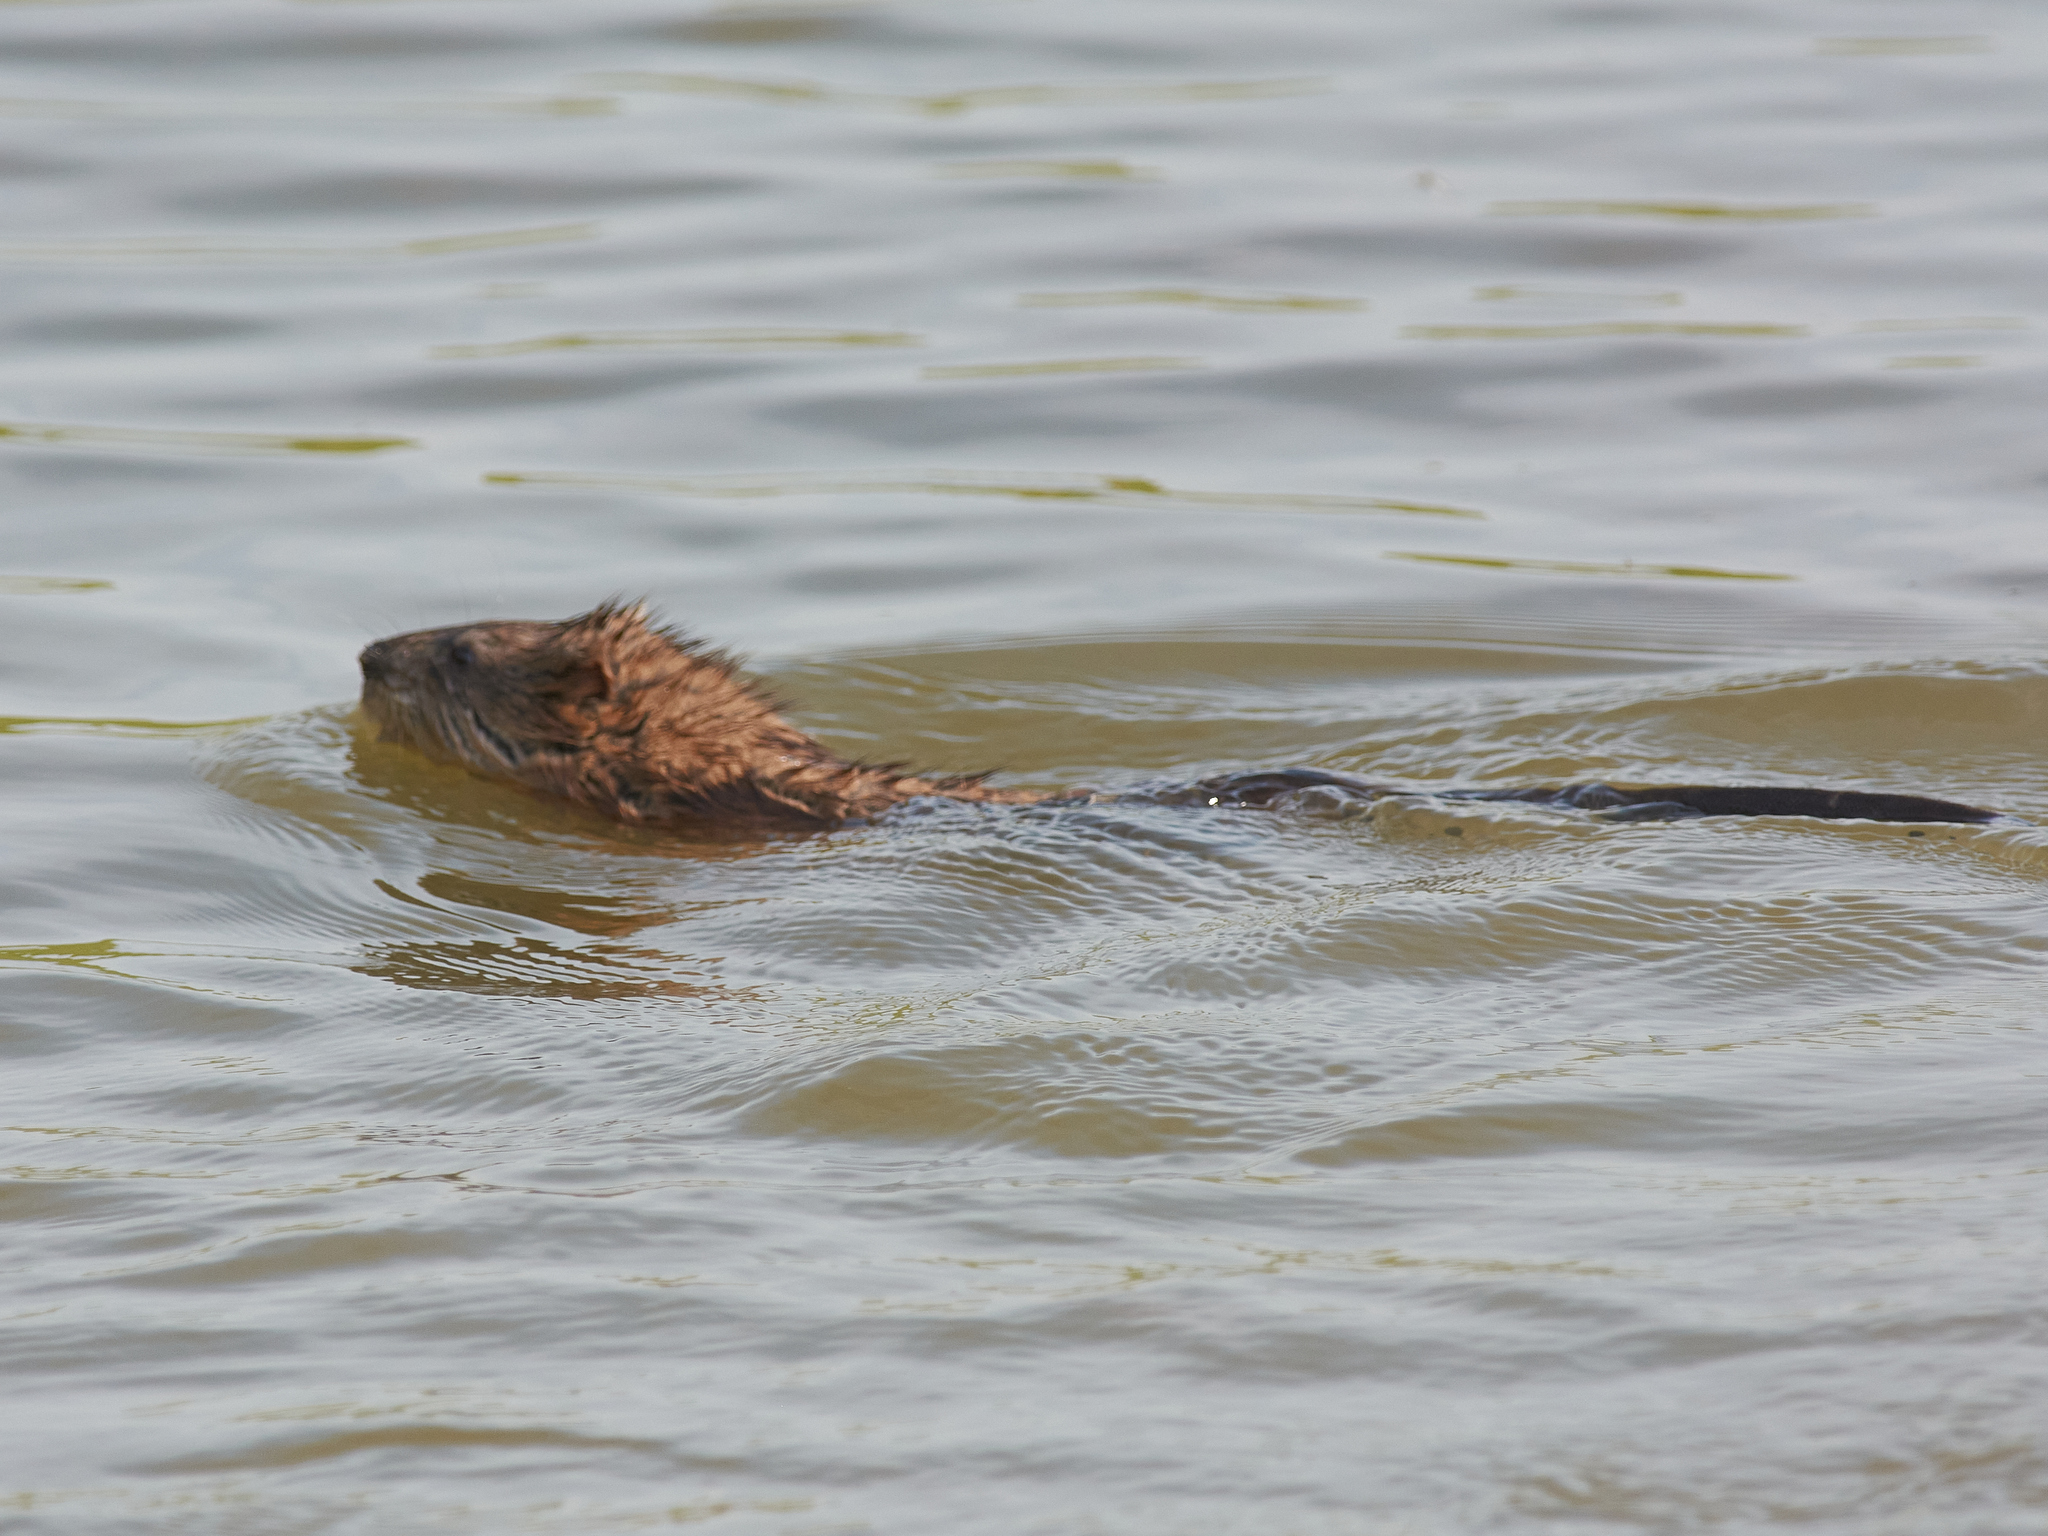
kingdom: Animalia
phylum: Chordata
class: Mammalia
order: Rodentia
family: Cricetidae
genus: Ondatra
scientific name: Ondatra zibethicus
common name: Muskrat
